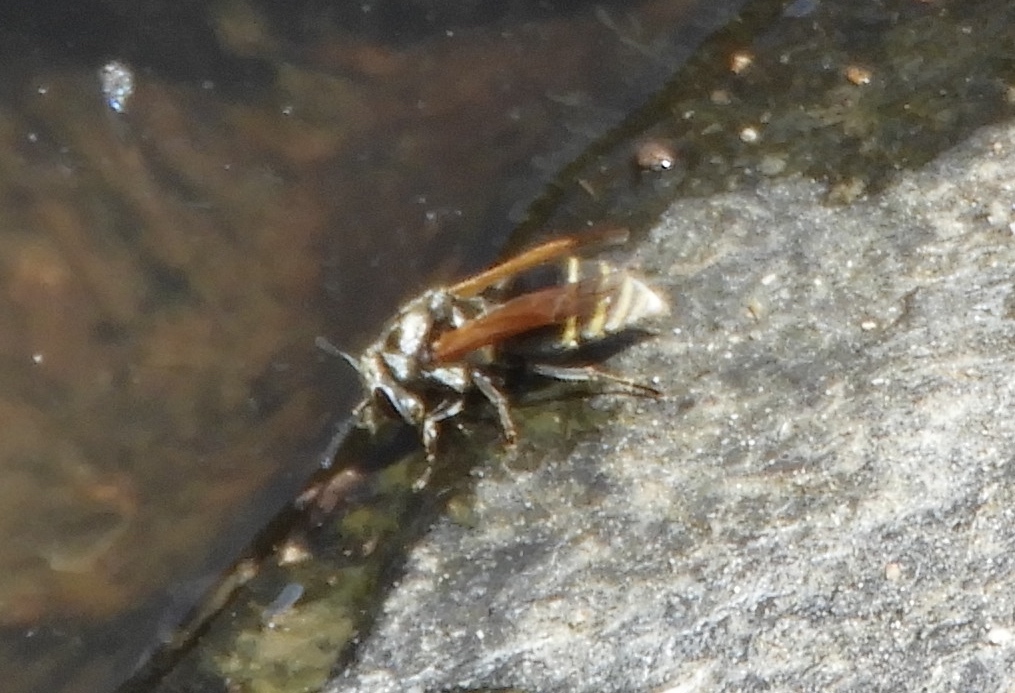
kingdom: Animalia
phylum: Arthropoda
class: Insecta
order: Hymenoptera
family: Vespidae
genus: Brachygastra
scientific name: Brachygastra mellifica
